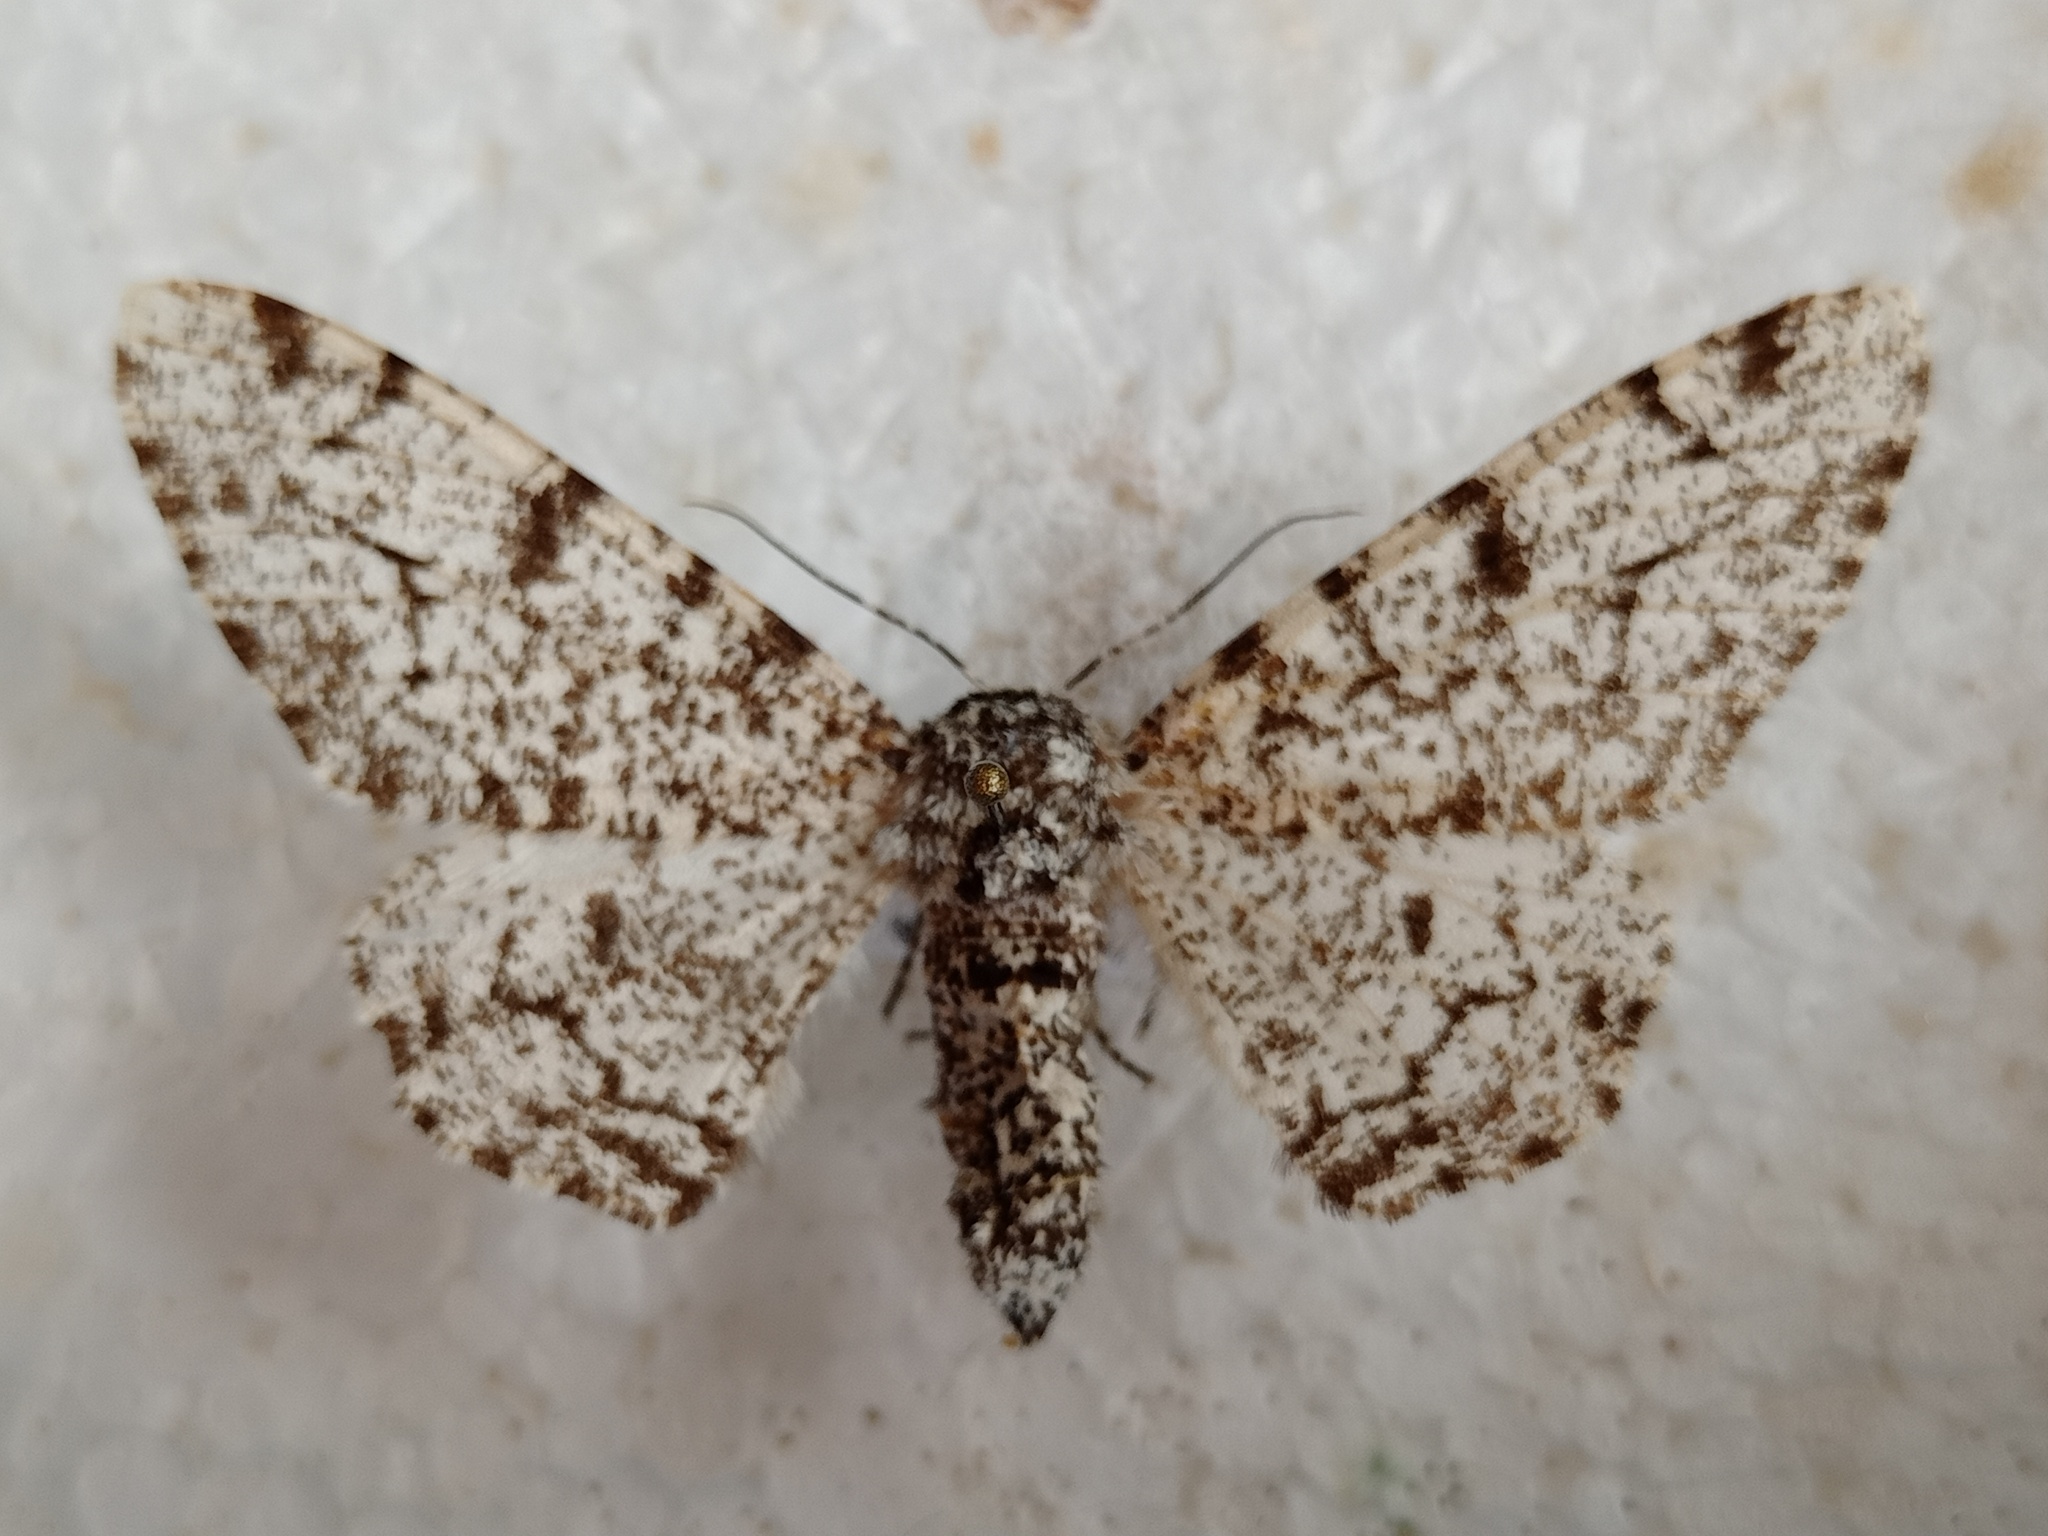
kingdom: Animalia
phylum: Arthropoda
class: Insecta
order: Lepidoptera
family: Geometridae
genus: Biston
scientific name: Biston betularia
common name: Peppered moth
